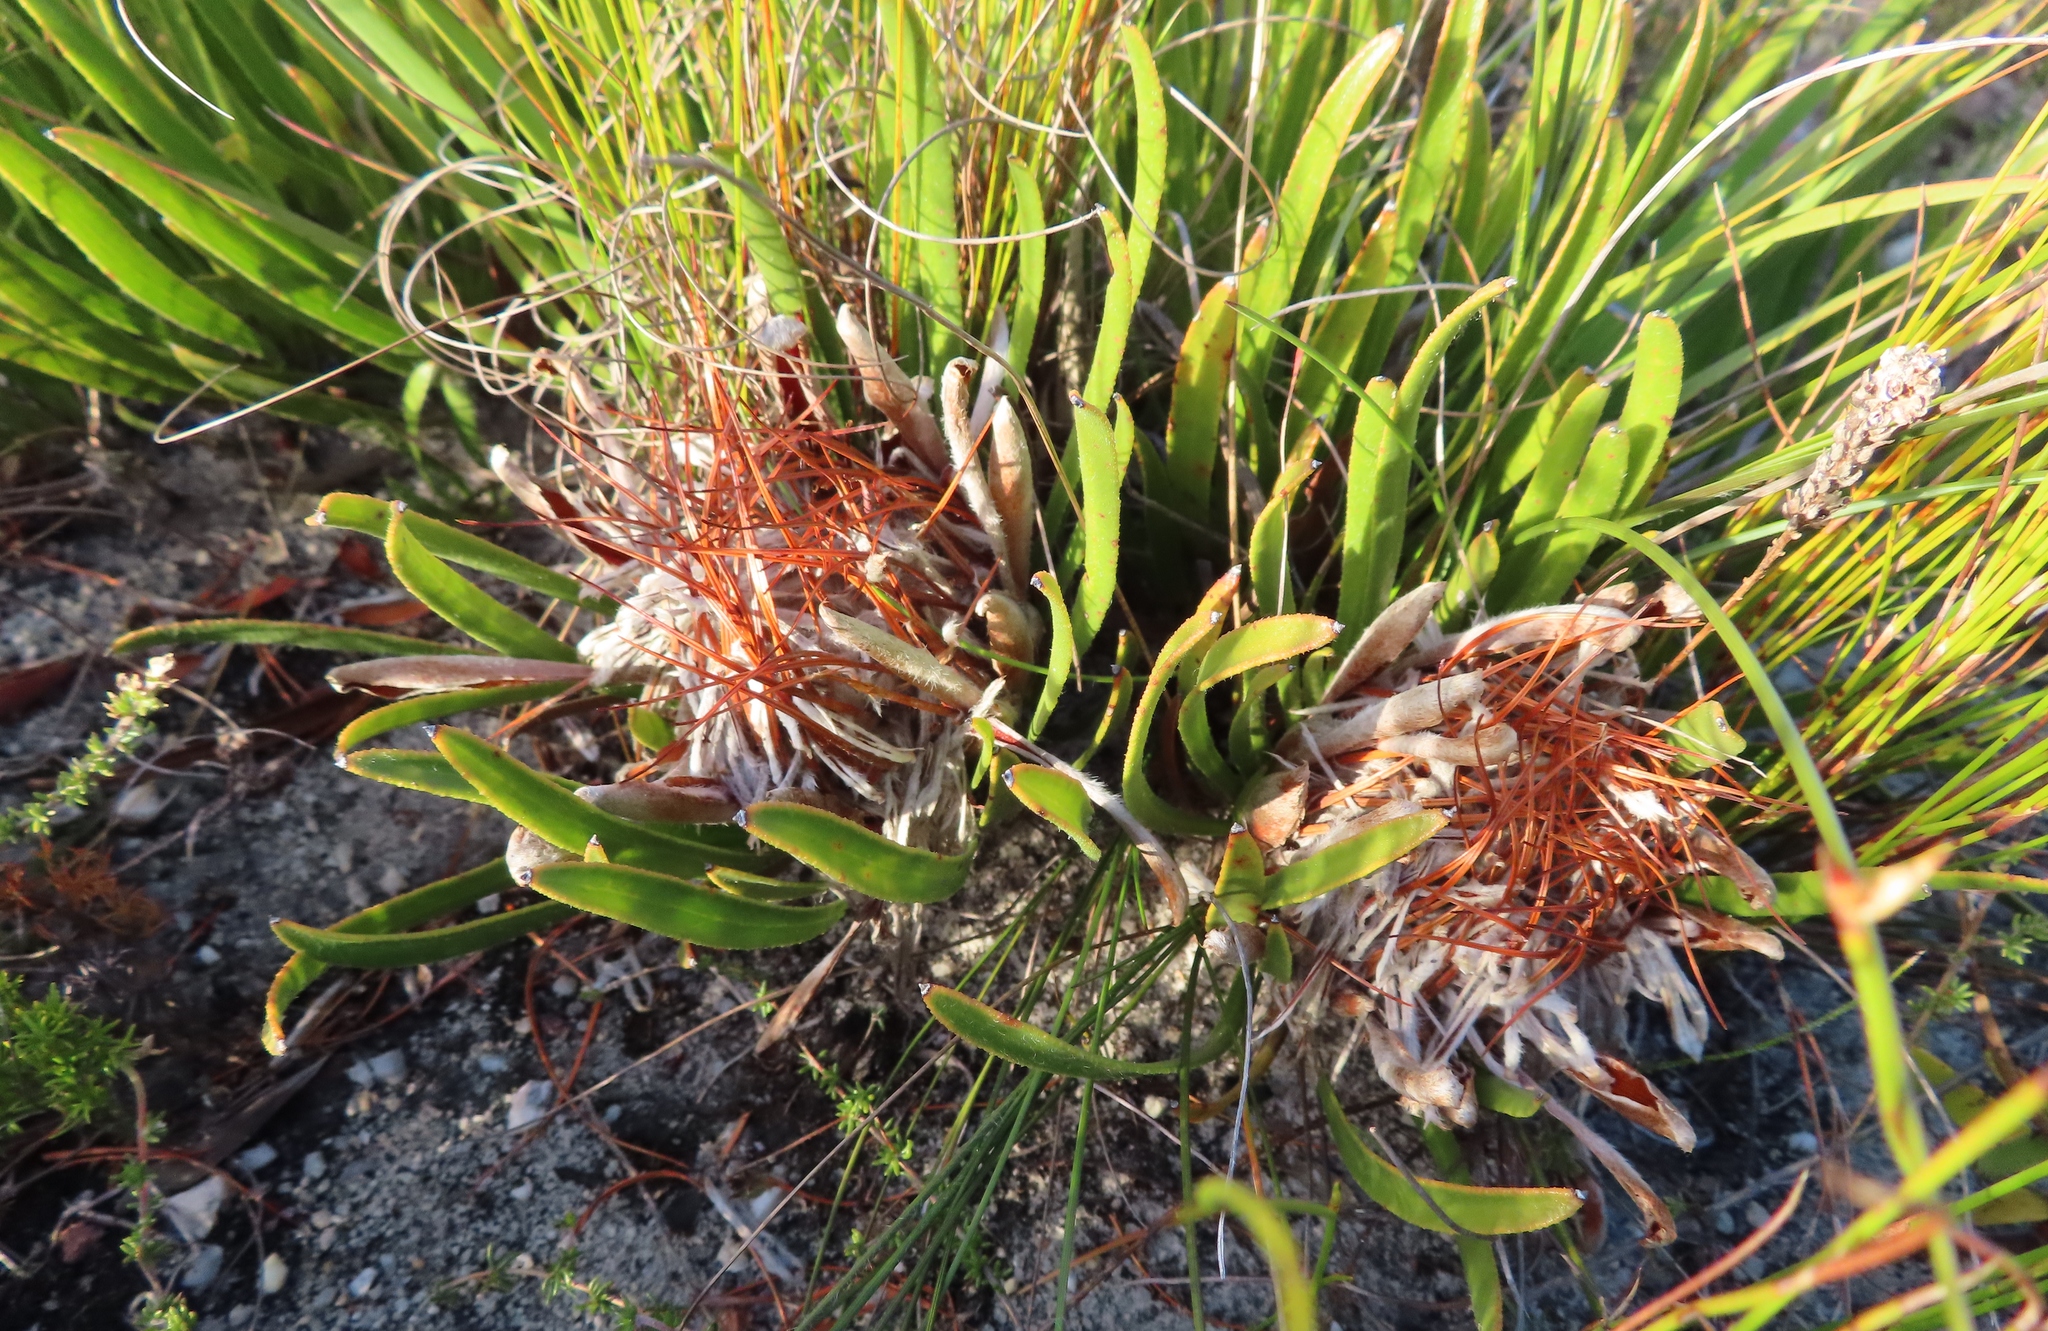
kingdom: Plantae
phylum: Tracheophyta
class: Magnoliopsida
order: Proteales
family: Proteaceae
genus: Protea
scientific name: Protea aspera
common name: Rough-leaf sugarbush
